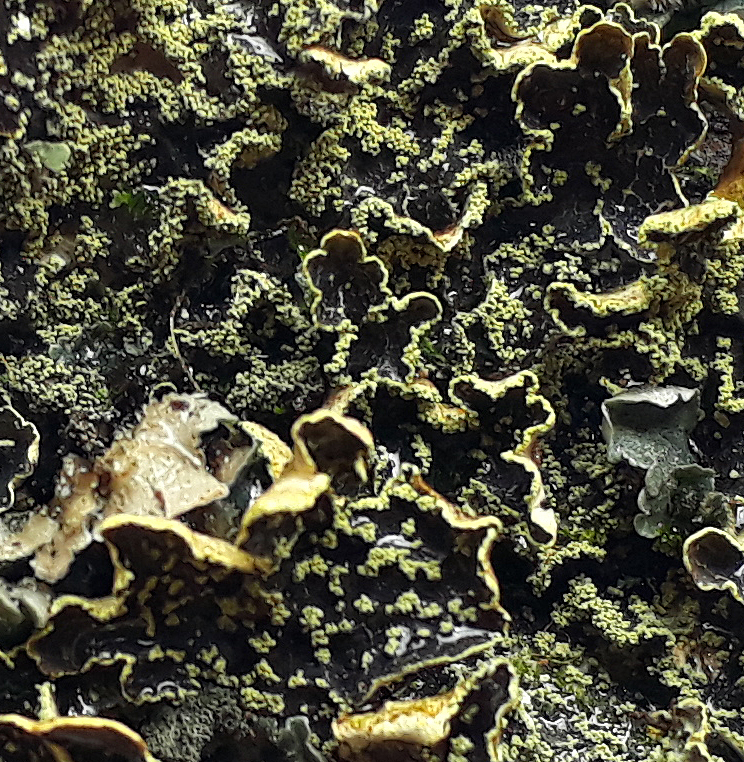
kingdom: Fungi
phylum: Ascomycota
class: Lecanoromycetes
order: Peltigerales
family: Lobariaceae
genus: Pseudocyphellaria
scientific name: Pseudocyphellaria crocata
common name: Golden specklebelly
